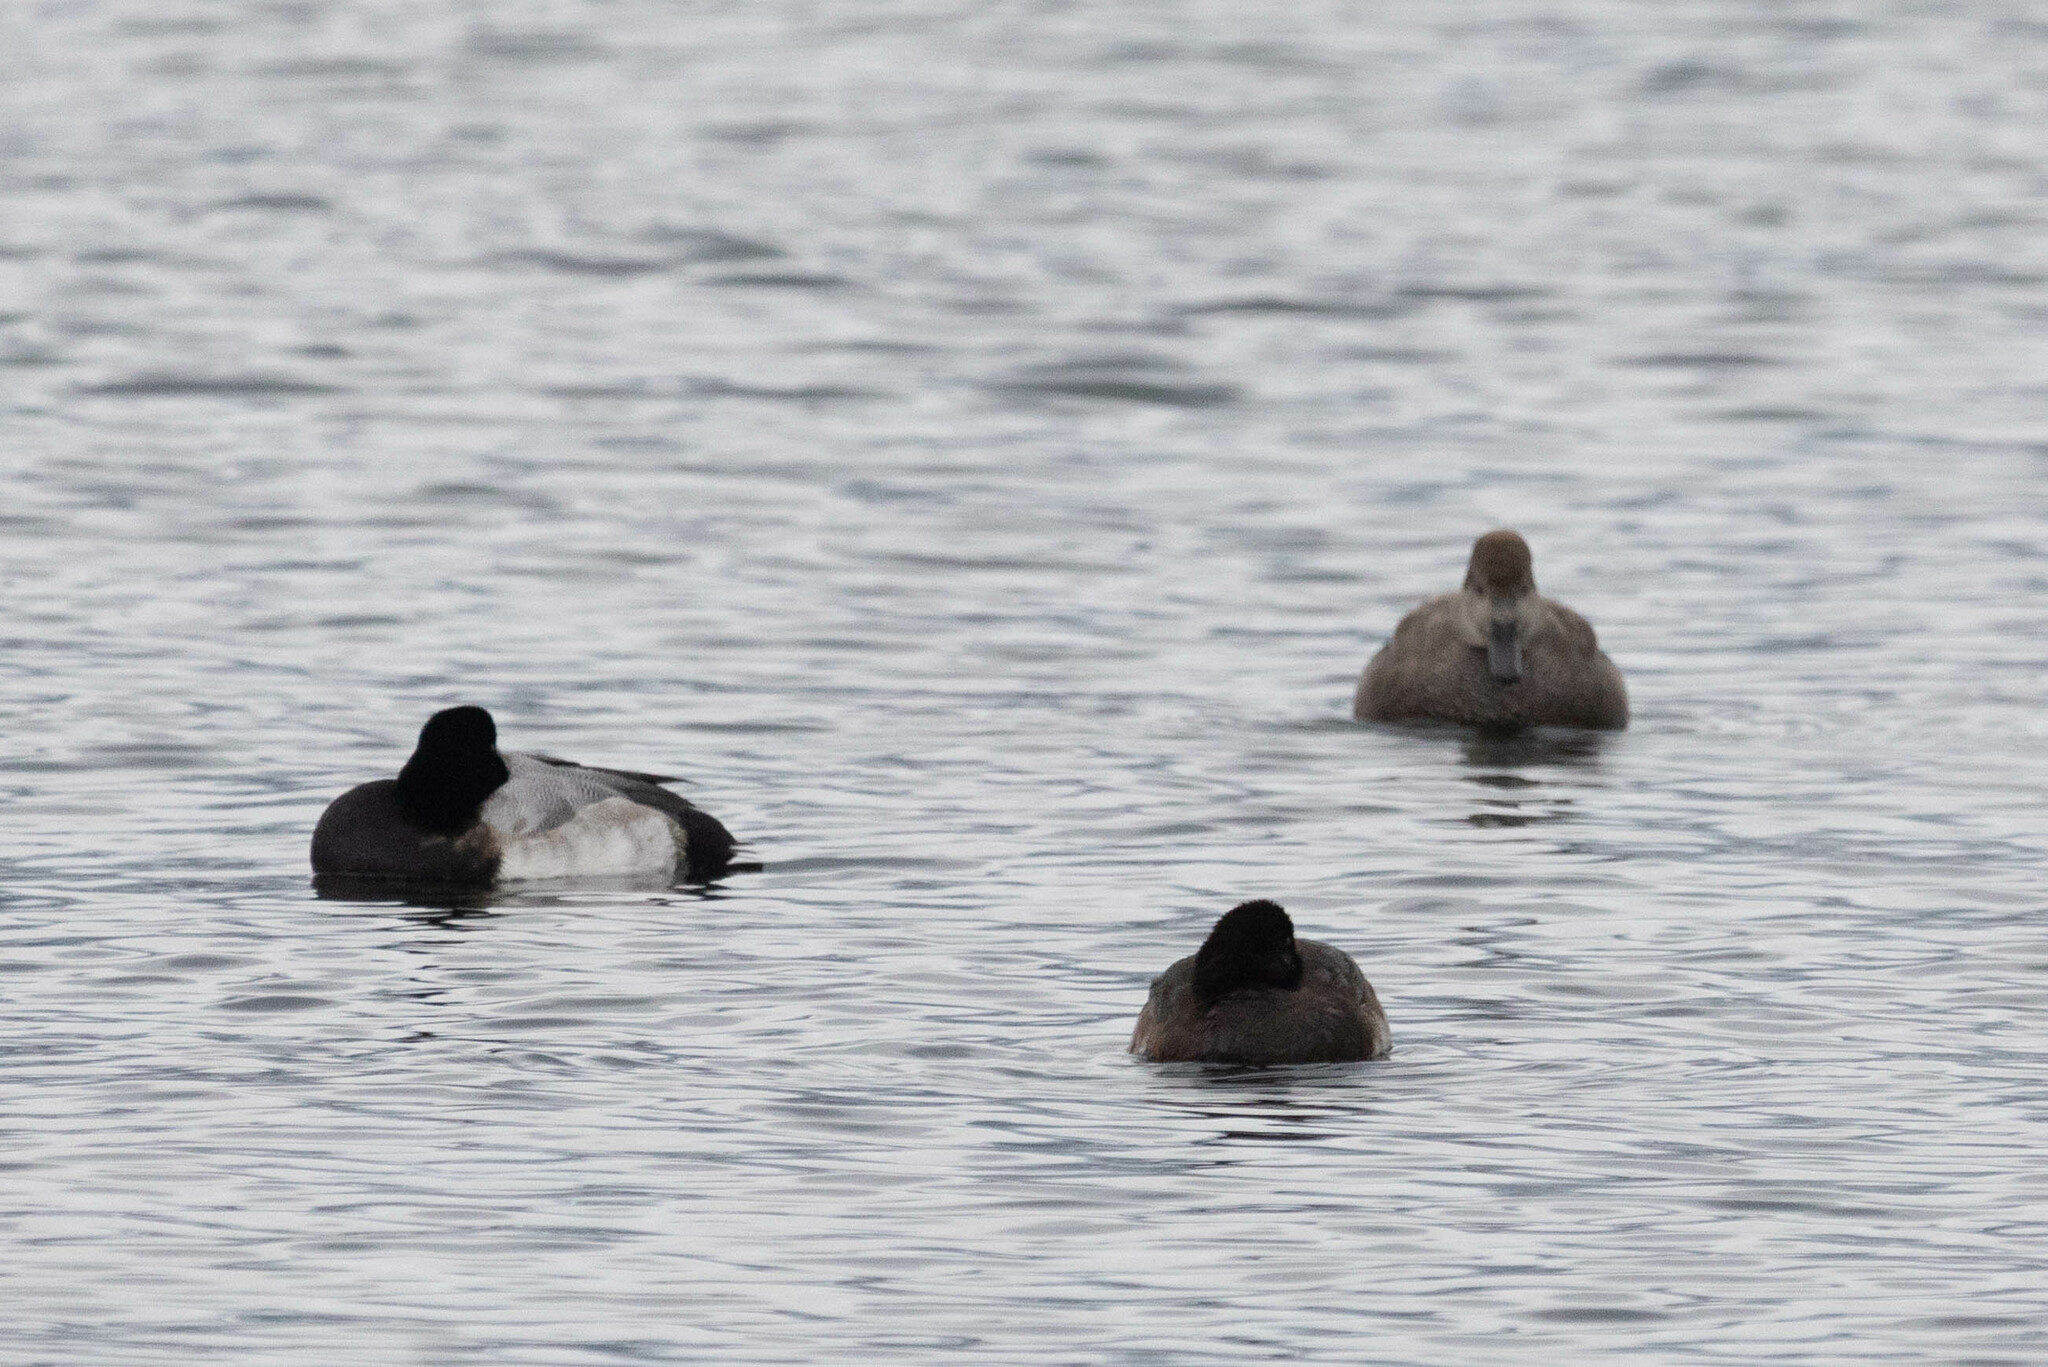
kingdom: Animalia
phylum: Chordata
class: Aves
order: Anseriformes
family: Anatidae
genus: Aythya
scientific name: Aythya marila
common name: Greater scaup
